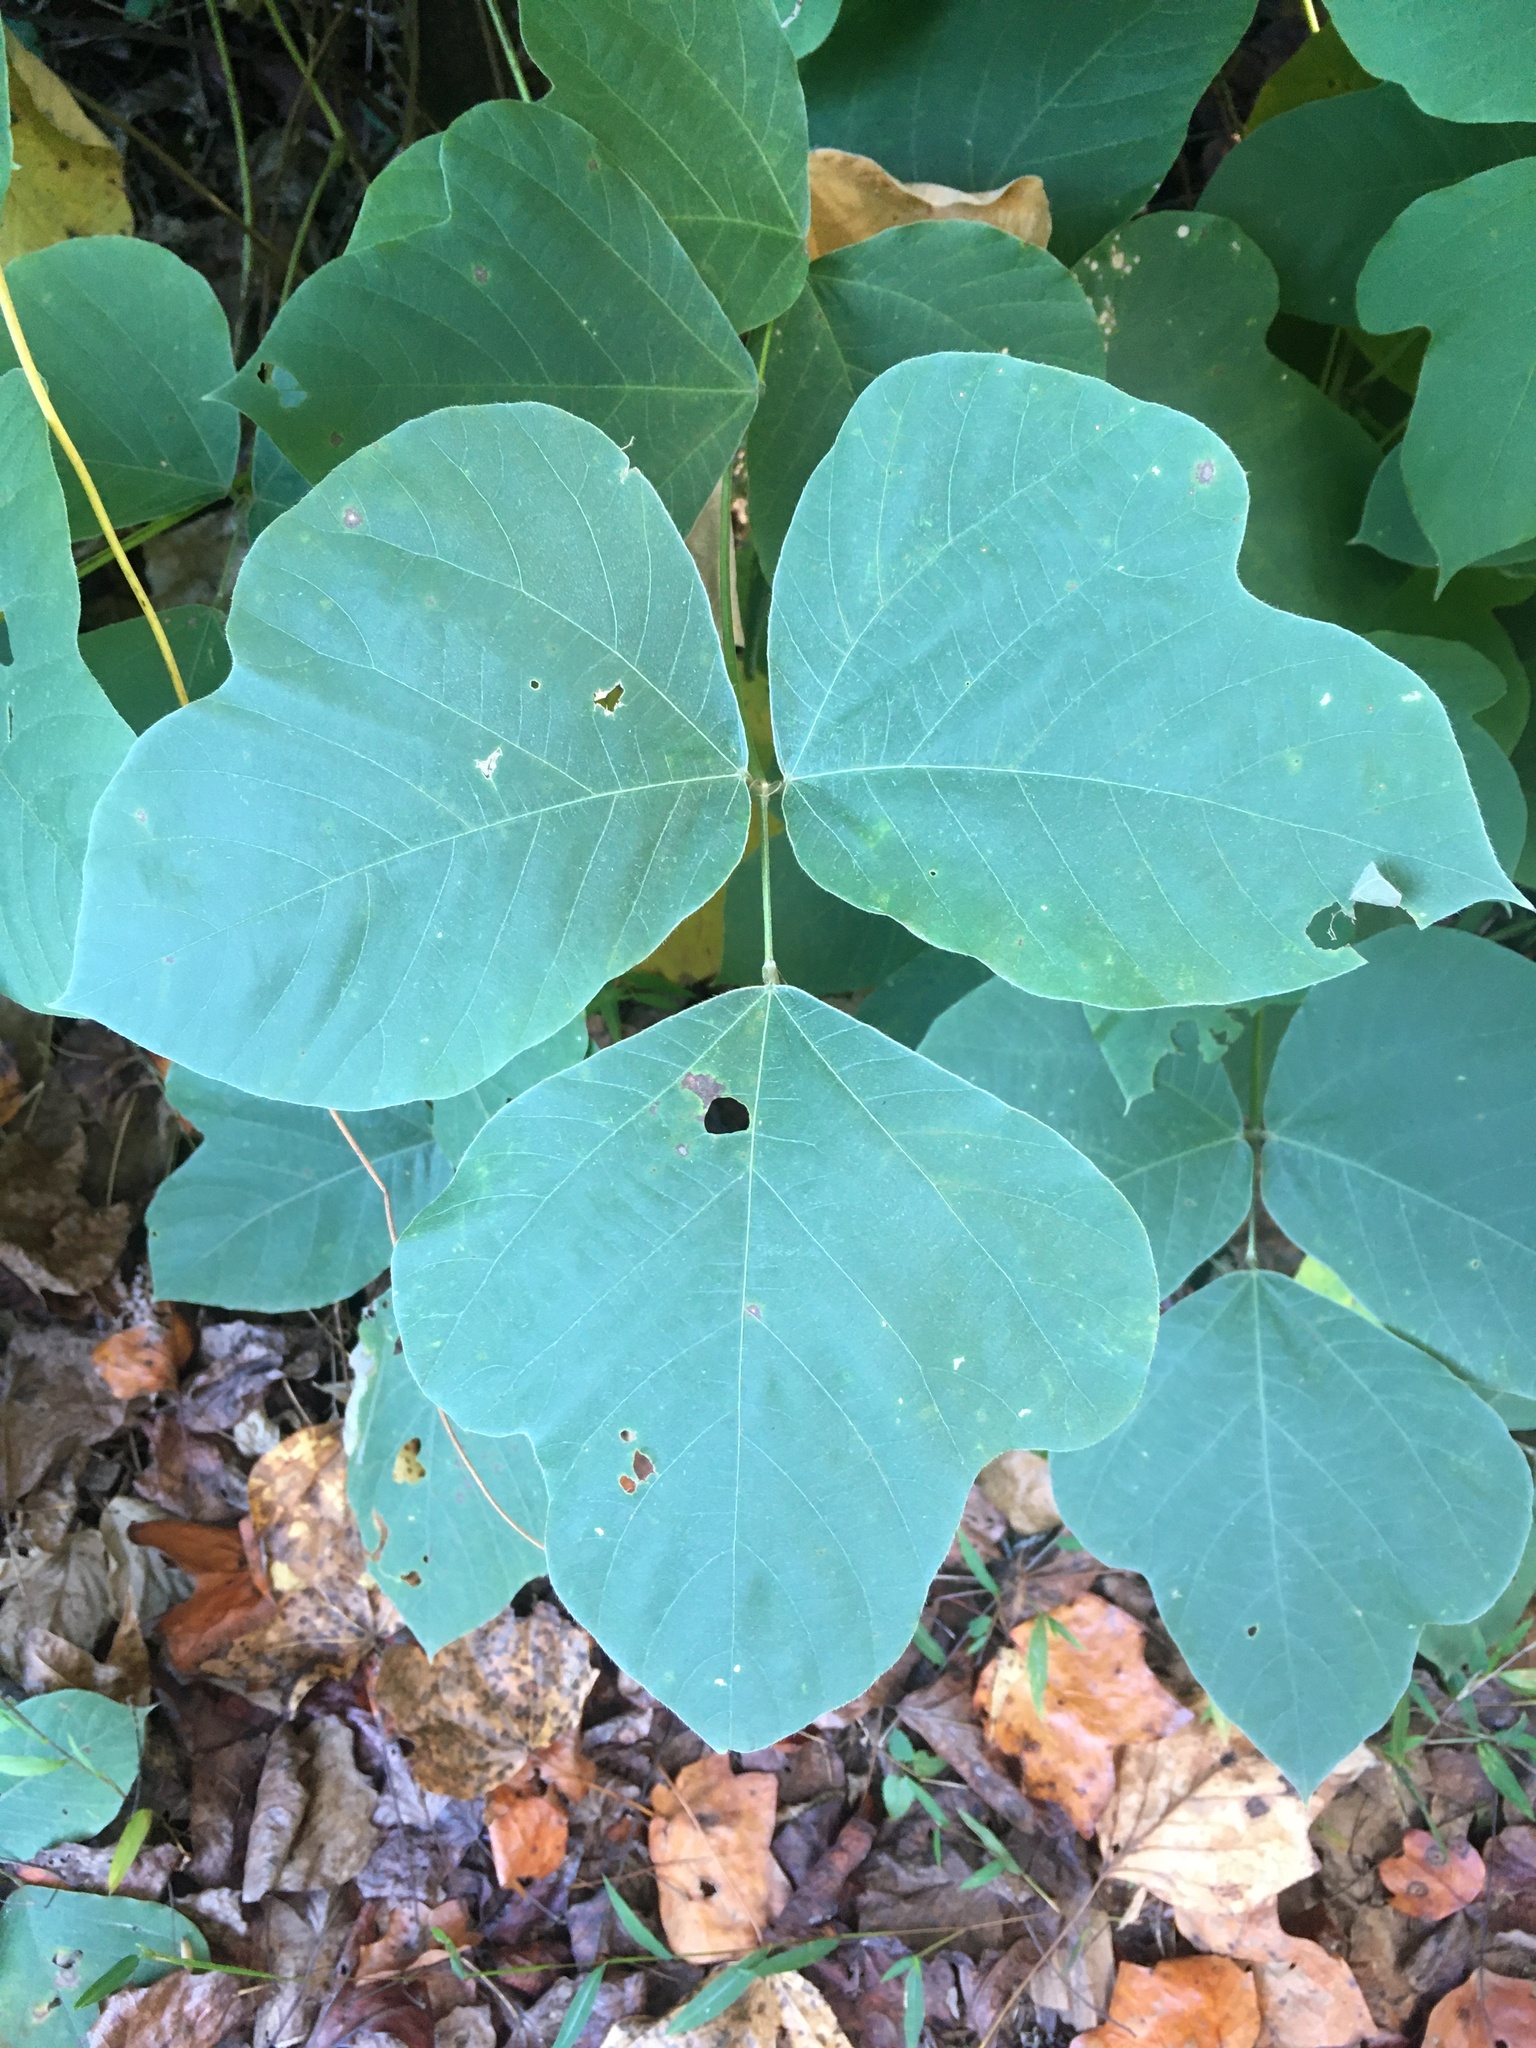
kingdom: Plantae
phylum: Tracheophyta
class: Magnoliopsida
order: Fabales
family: Fabaceae
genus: Pueraria
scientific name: Pueraria montana
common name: Kudzu
